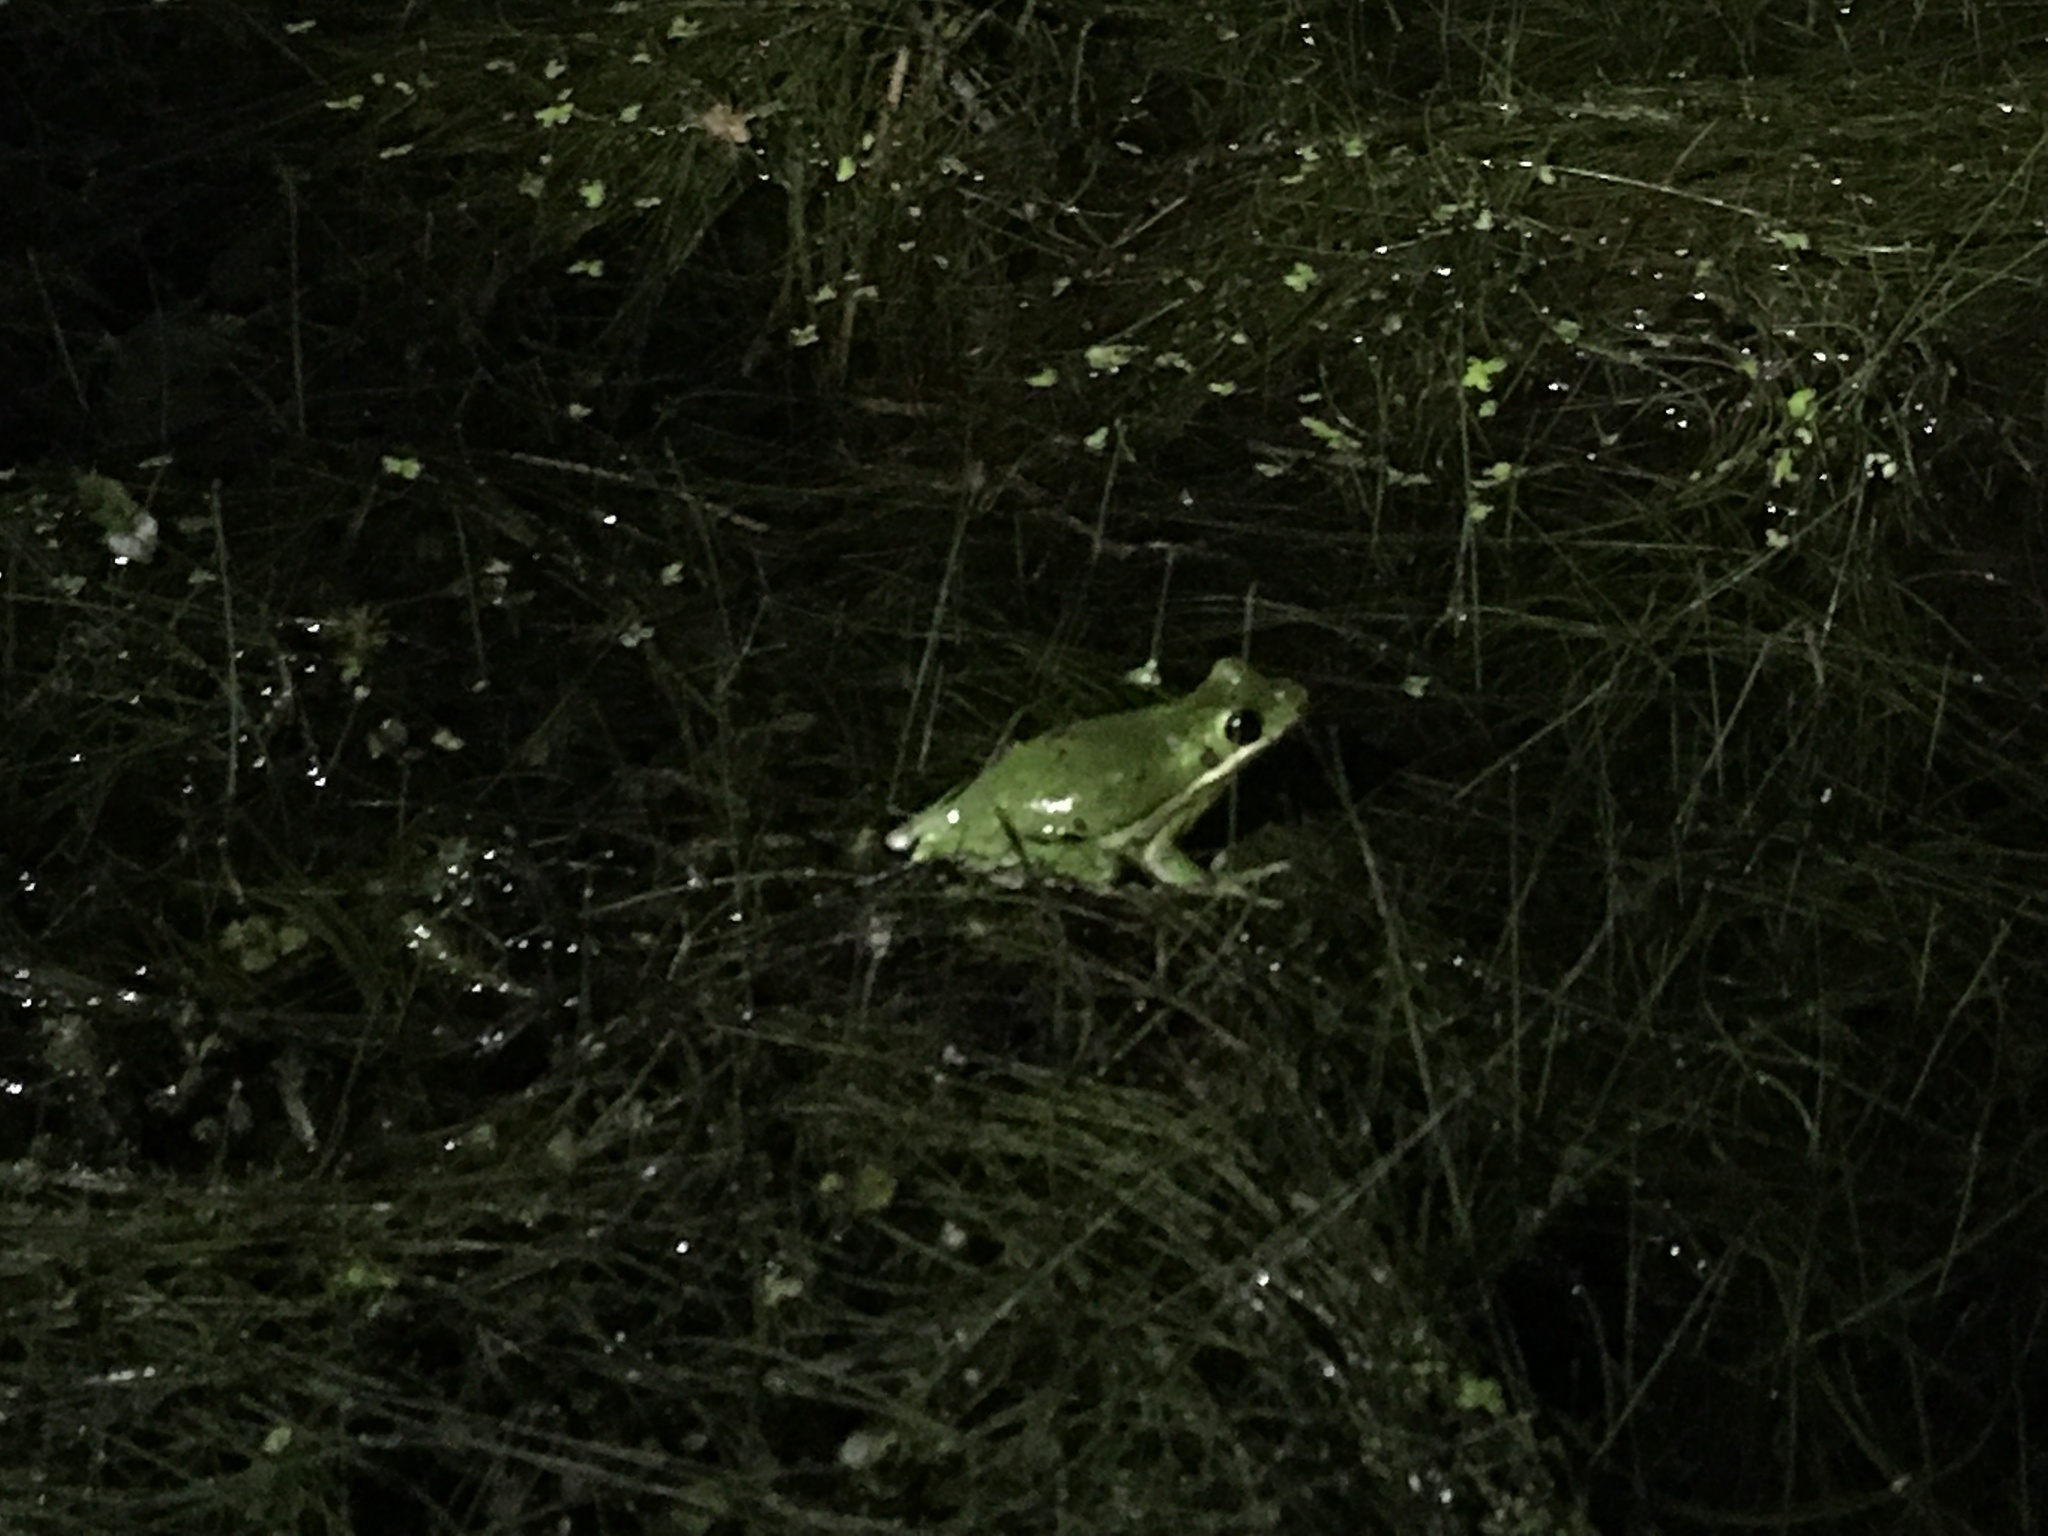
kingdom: Animalia
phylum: Chordata
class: Amphibia
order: Anura
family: Hylidae
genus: Dryophytes
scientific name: Dryophytes cinereus
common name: Green treefrog
